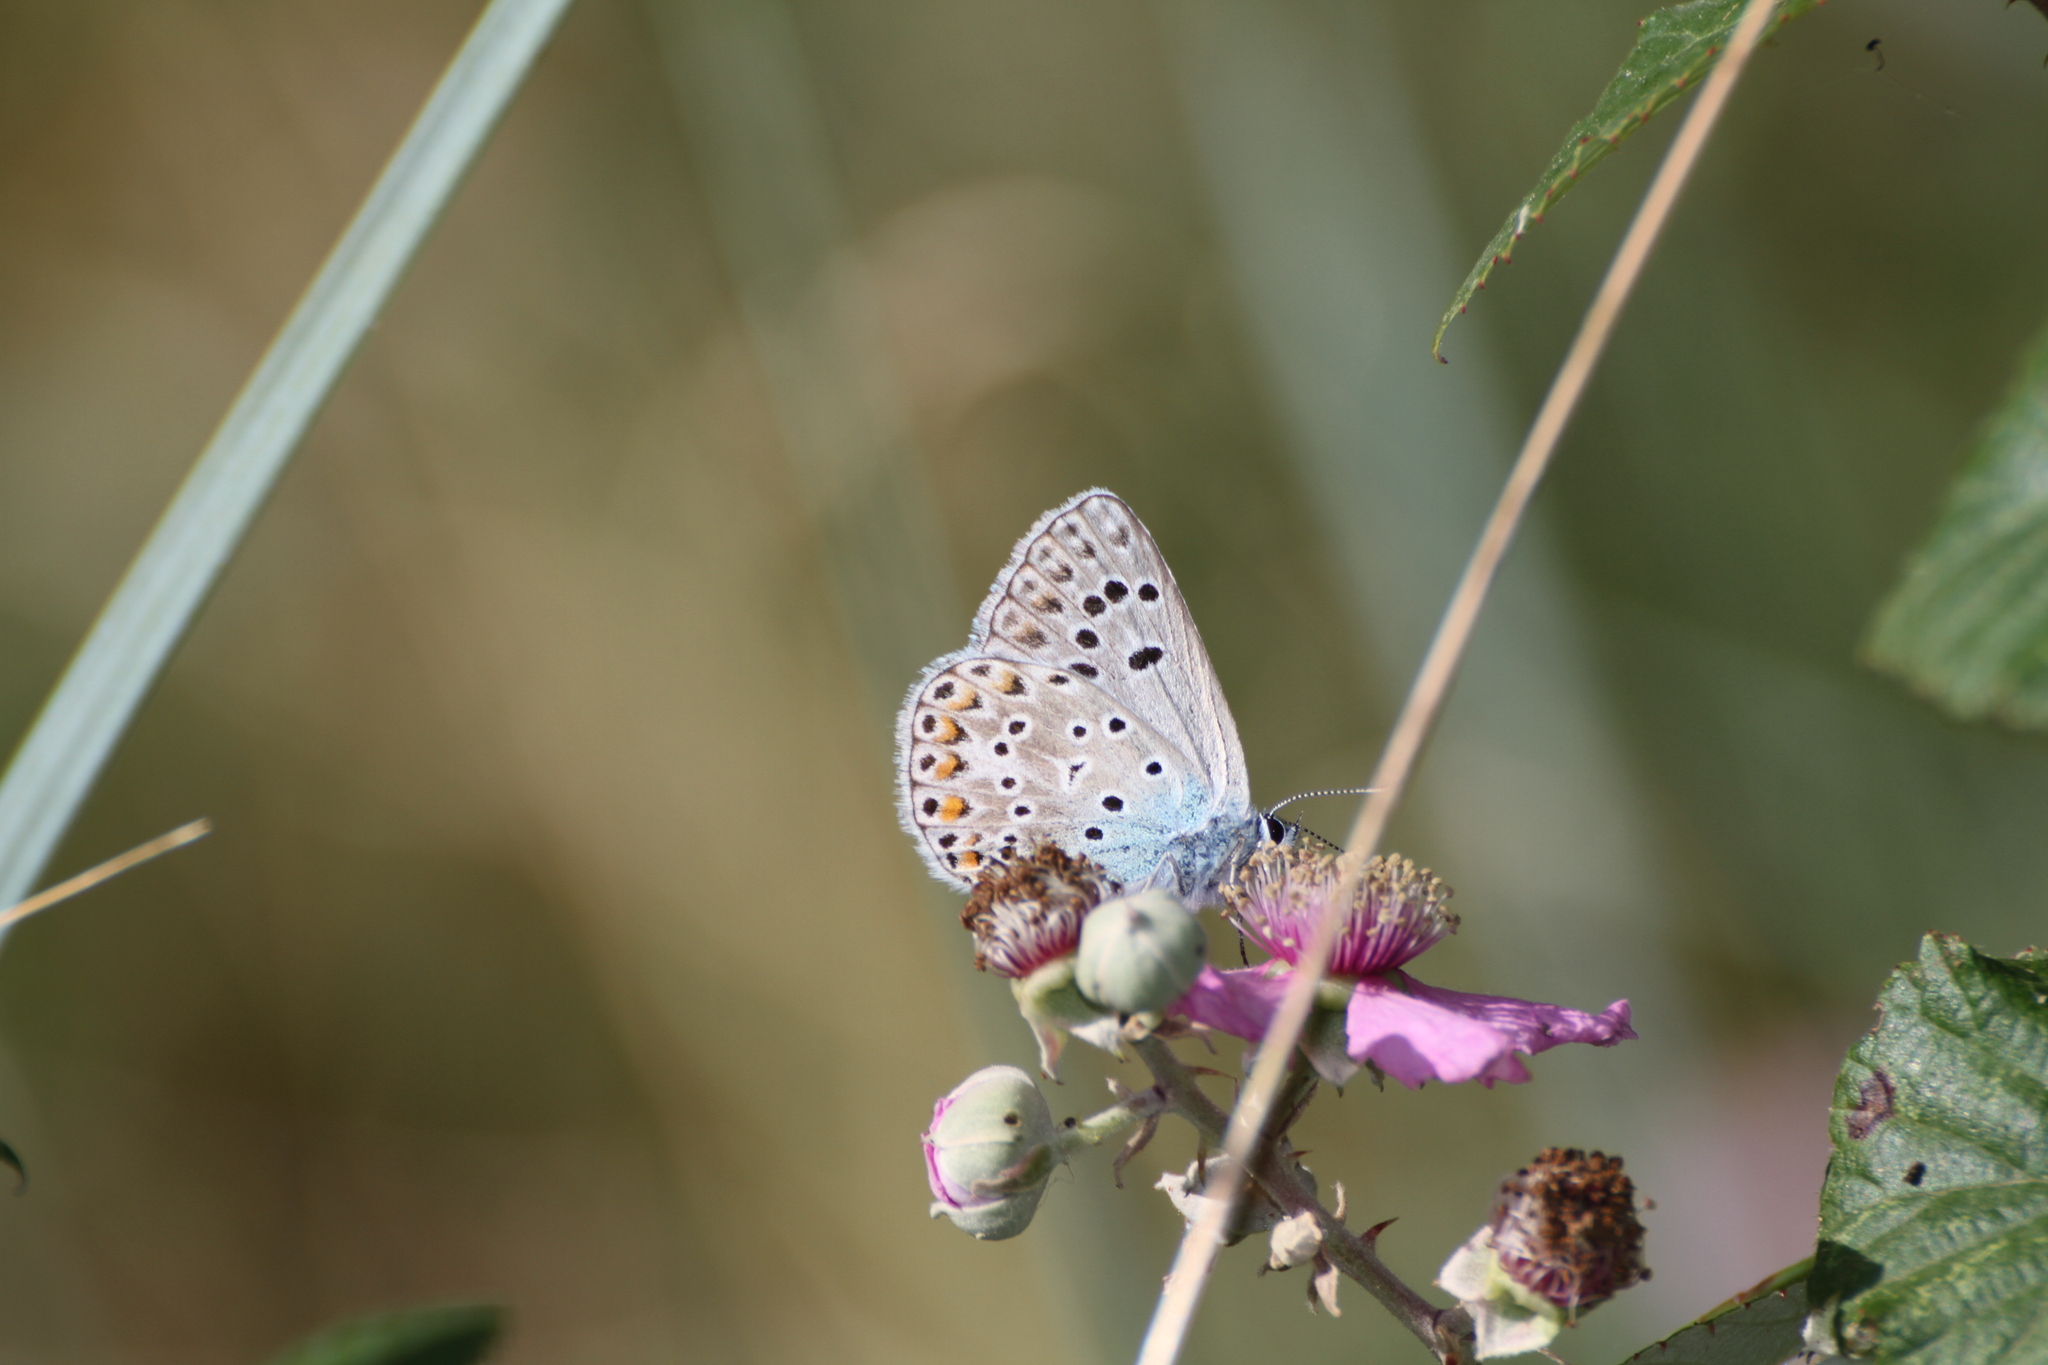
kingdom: Animalia
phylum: Arthropoda
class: Insecta
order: Lepidoptera
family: Lycaenidae
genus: Plebicula
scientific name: Plebicula escheri
